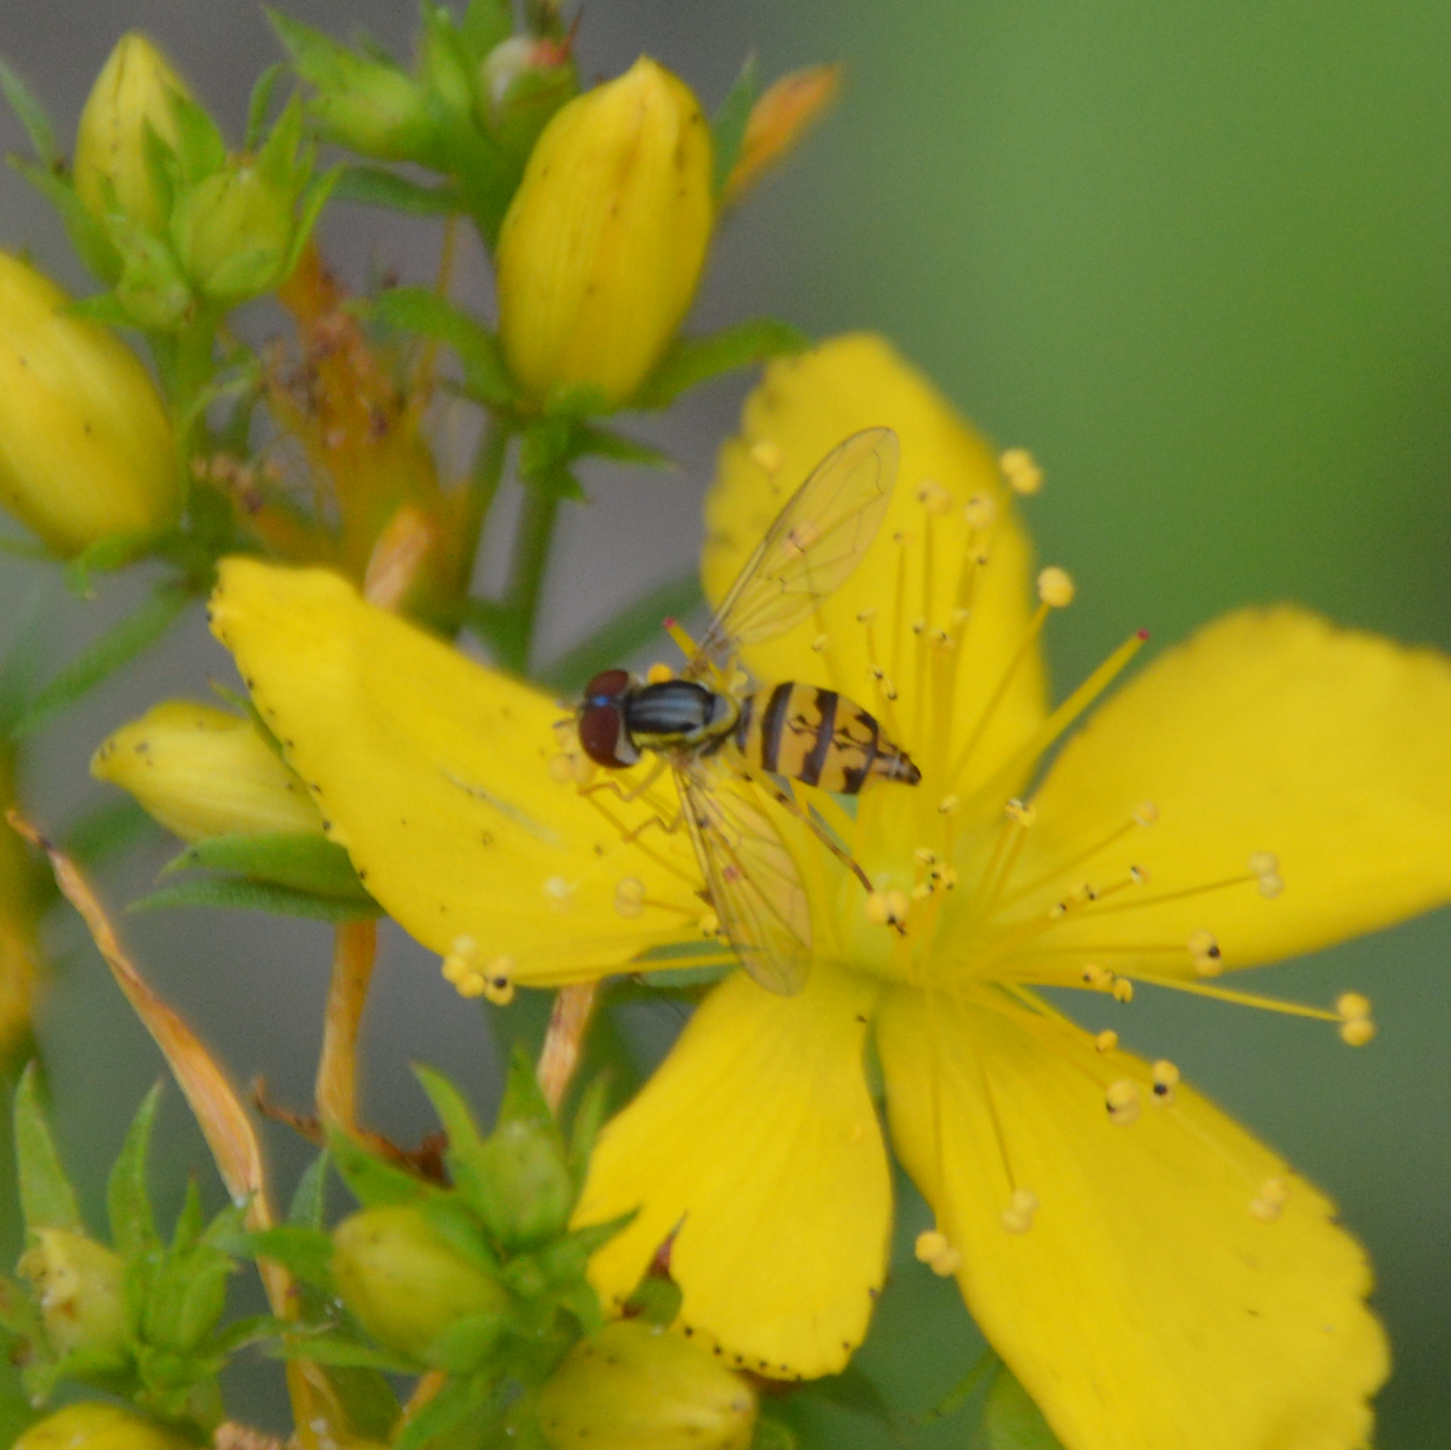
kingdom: Animalia
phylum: Arthropoda
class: Insecta
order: Diptera
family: Syrphidae
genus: Toxomerus
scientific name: Toxomerus geminatus
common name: Eastern calligrapher
